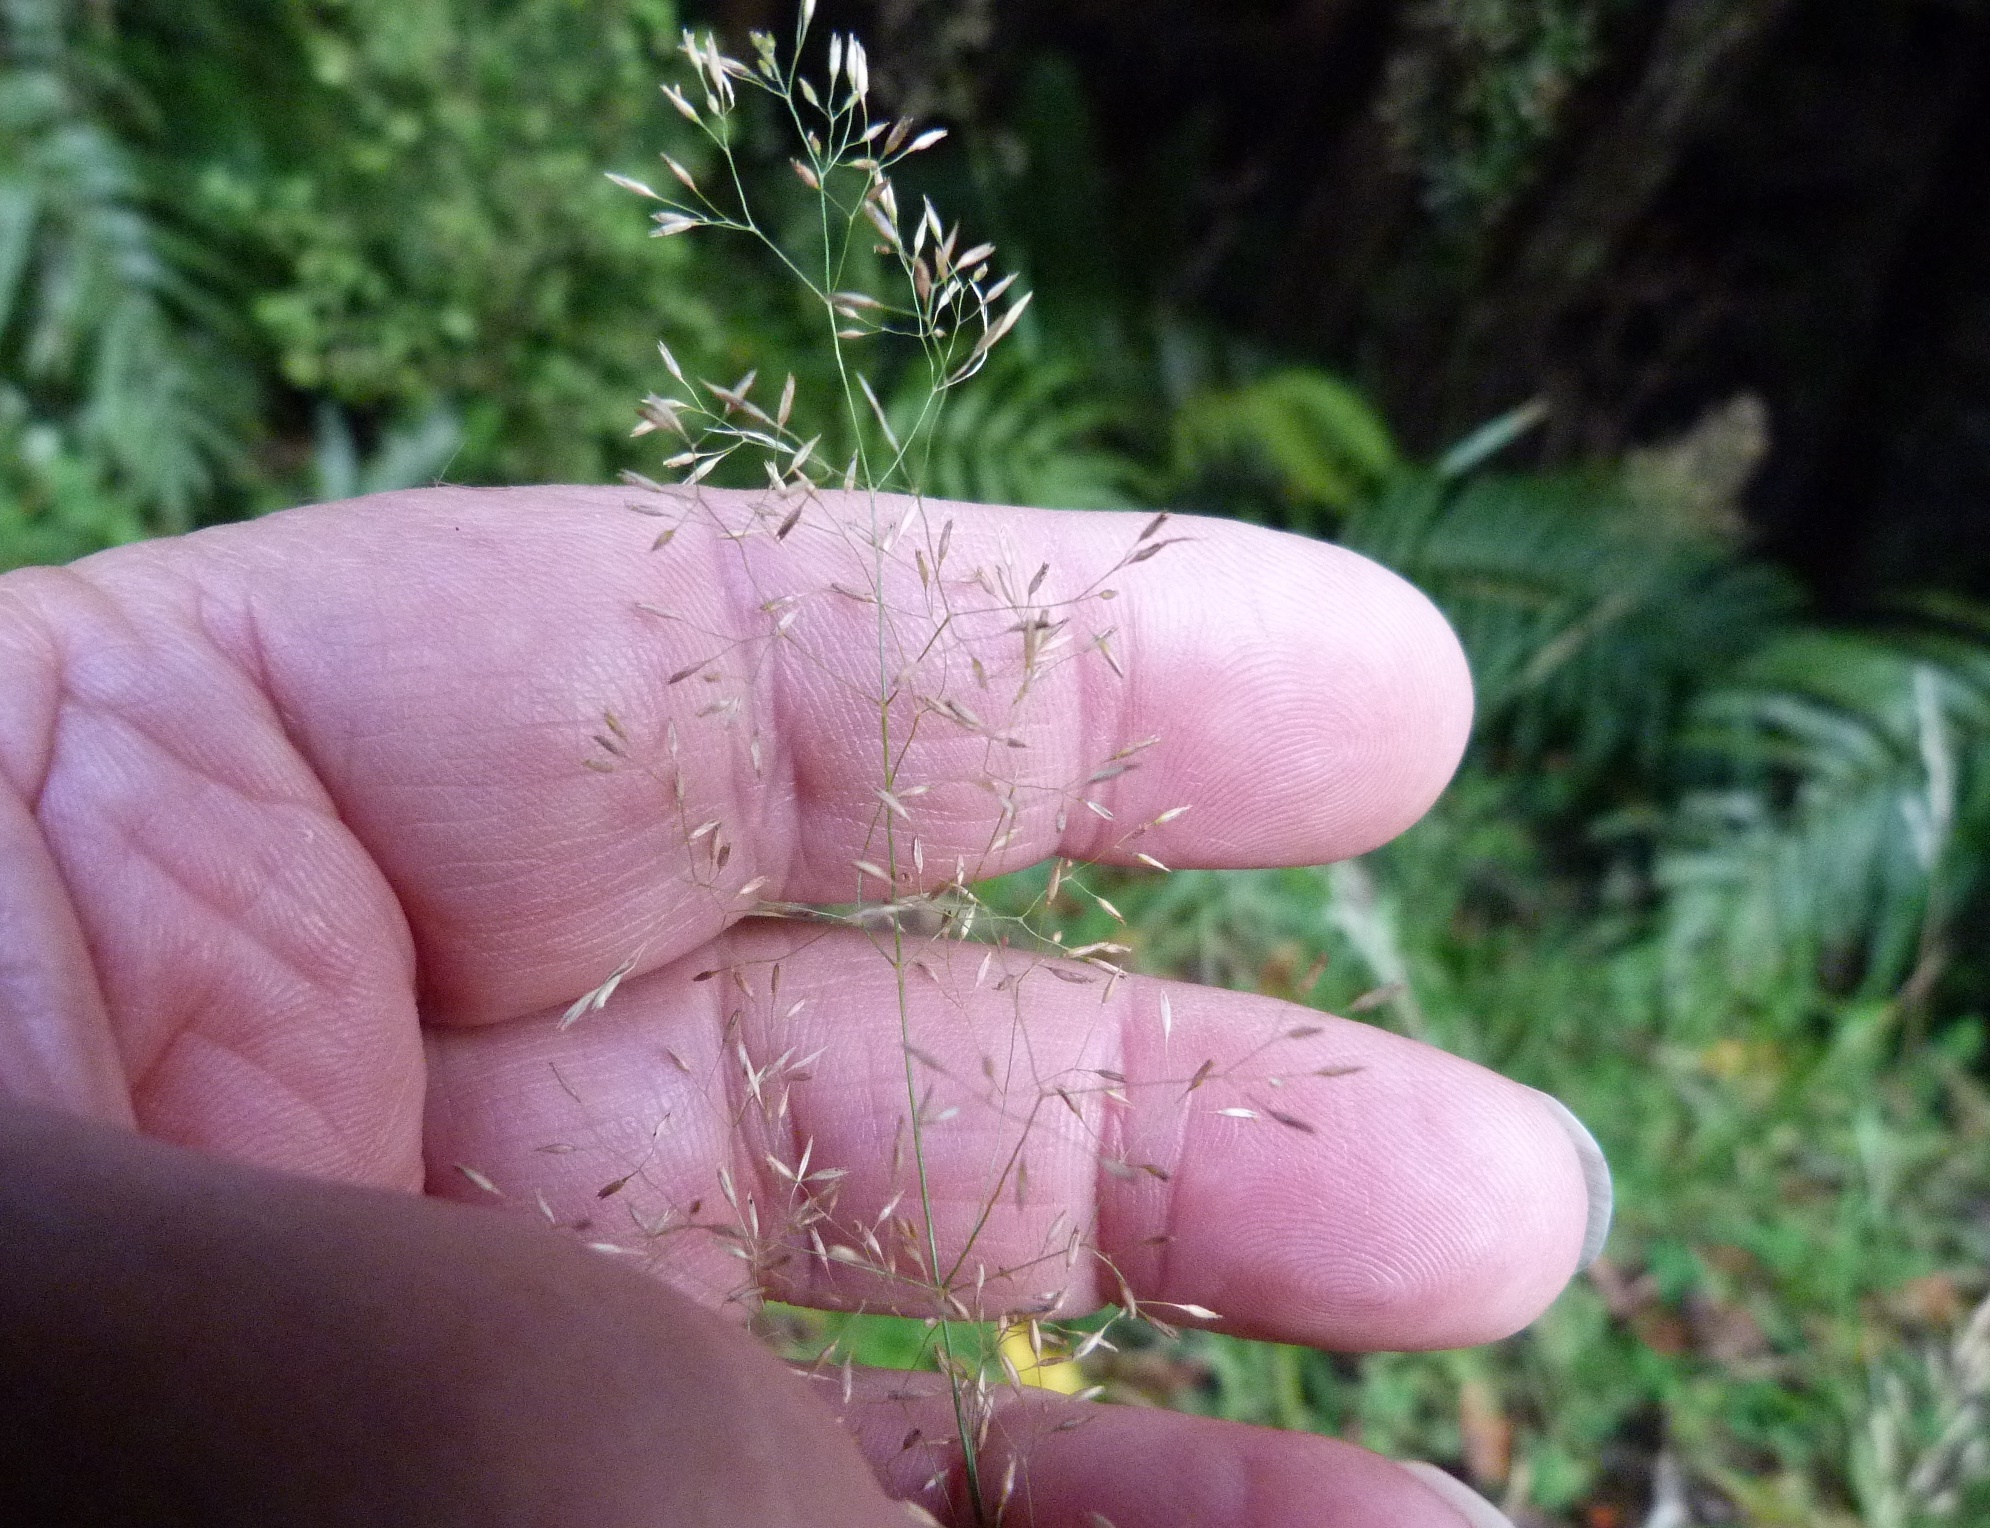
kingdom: Plantae
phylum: Tracheophyta
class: Liliopsida
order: Poales
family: Poaceae
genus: Agrostis
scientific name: Agrostis capillaris
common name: Colonial bentgrass
